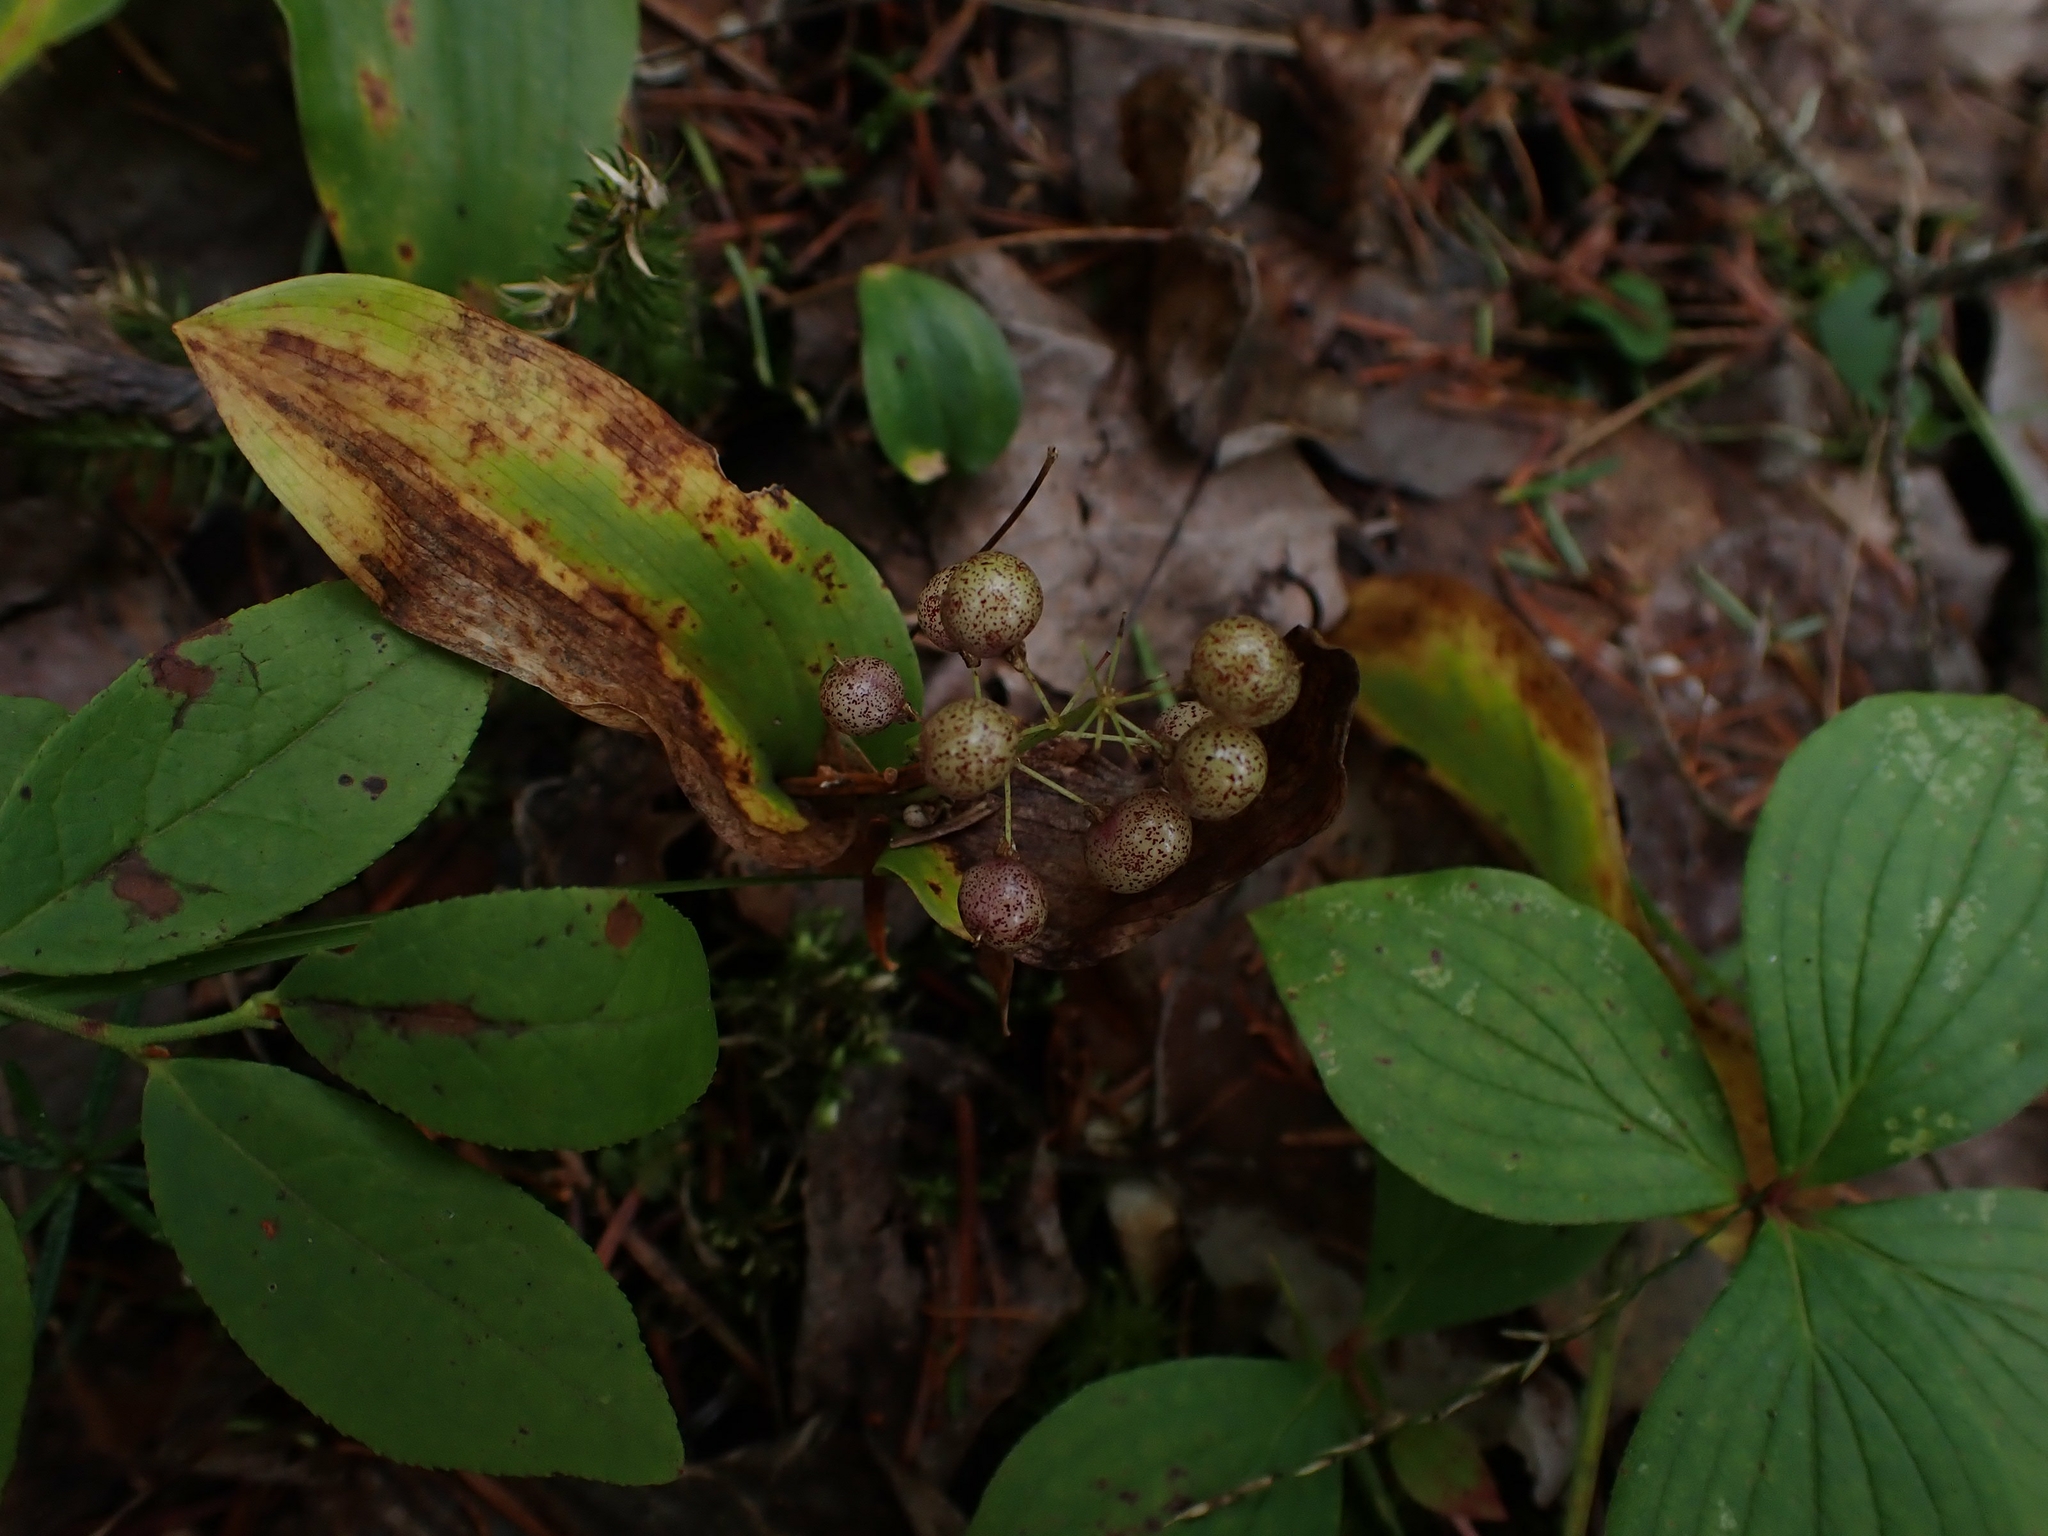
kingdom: Plantae
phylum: Tracheophyta
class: Liliopsida
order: Asparagales
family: Asparagaceae
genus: Maianthemum
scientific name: Maianthemum canadense
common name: False lily-of-the-valley
